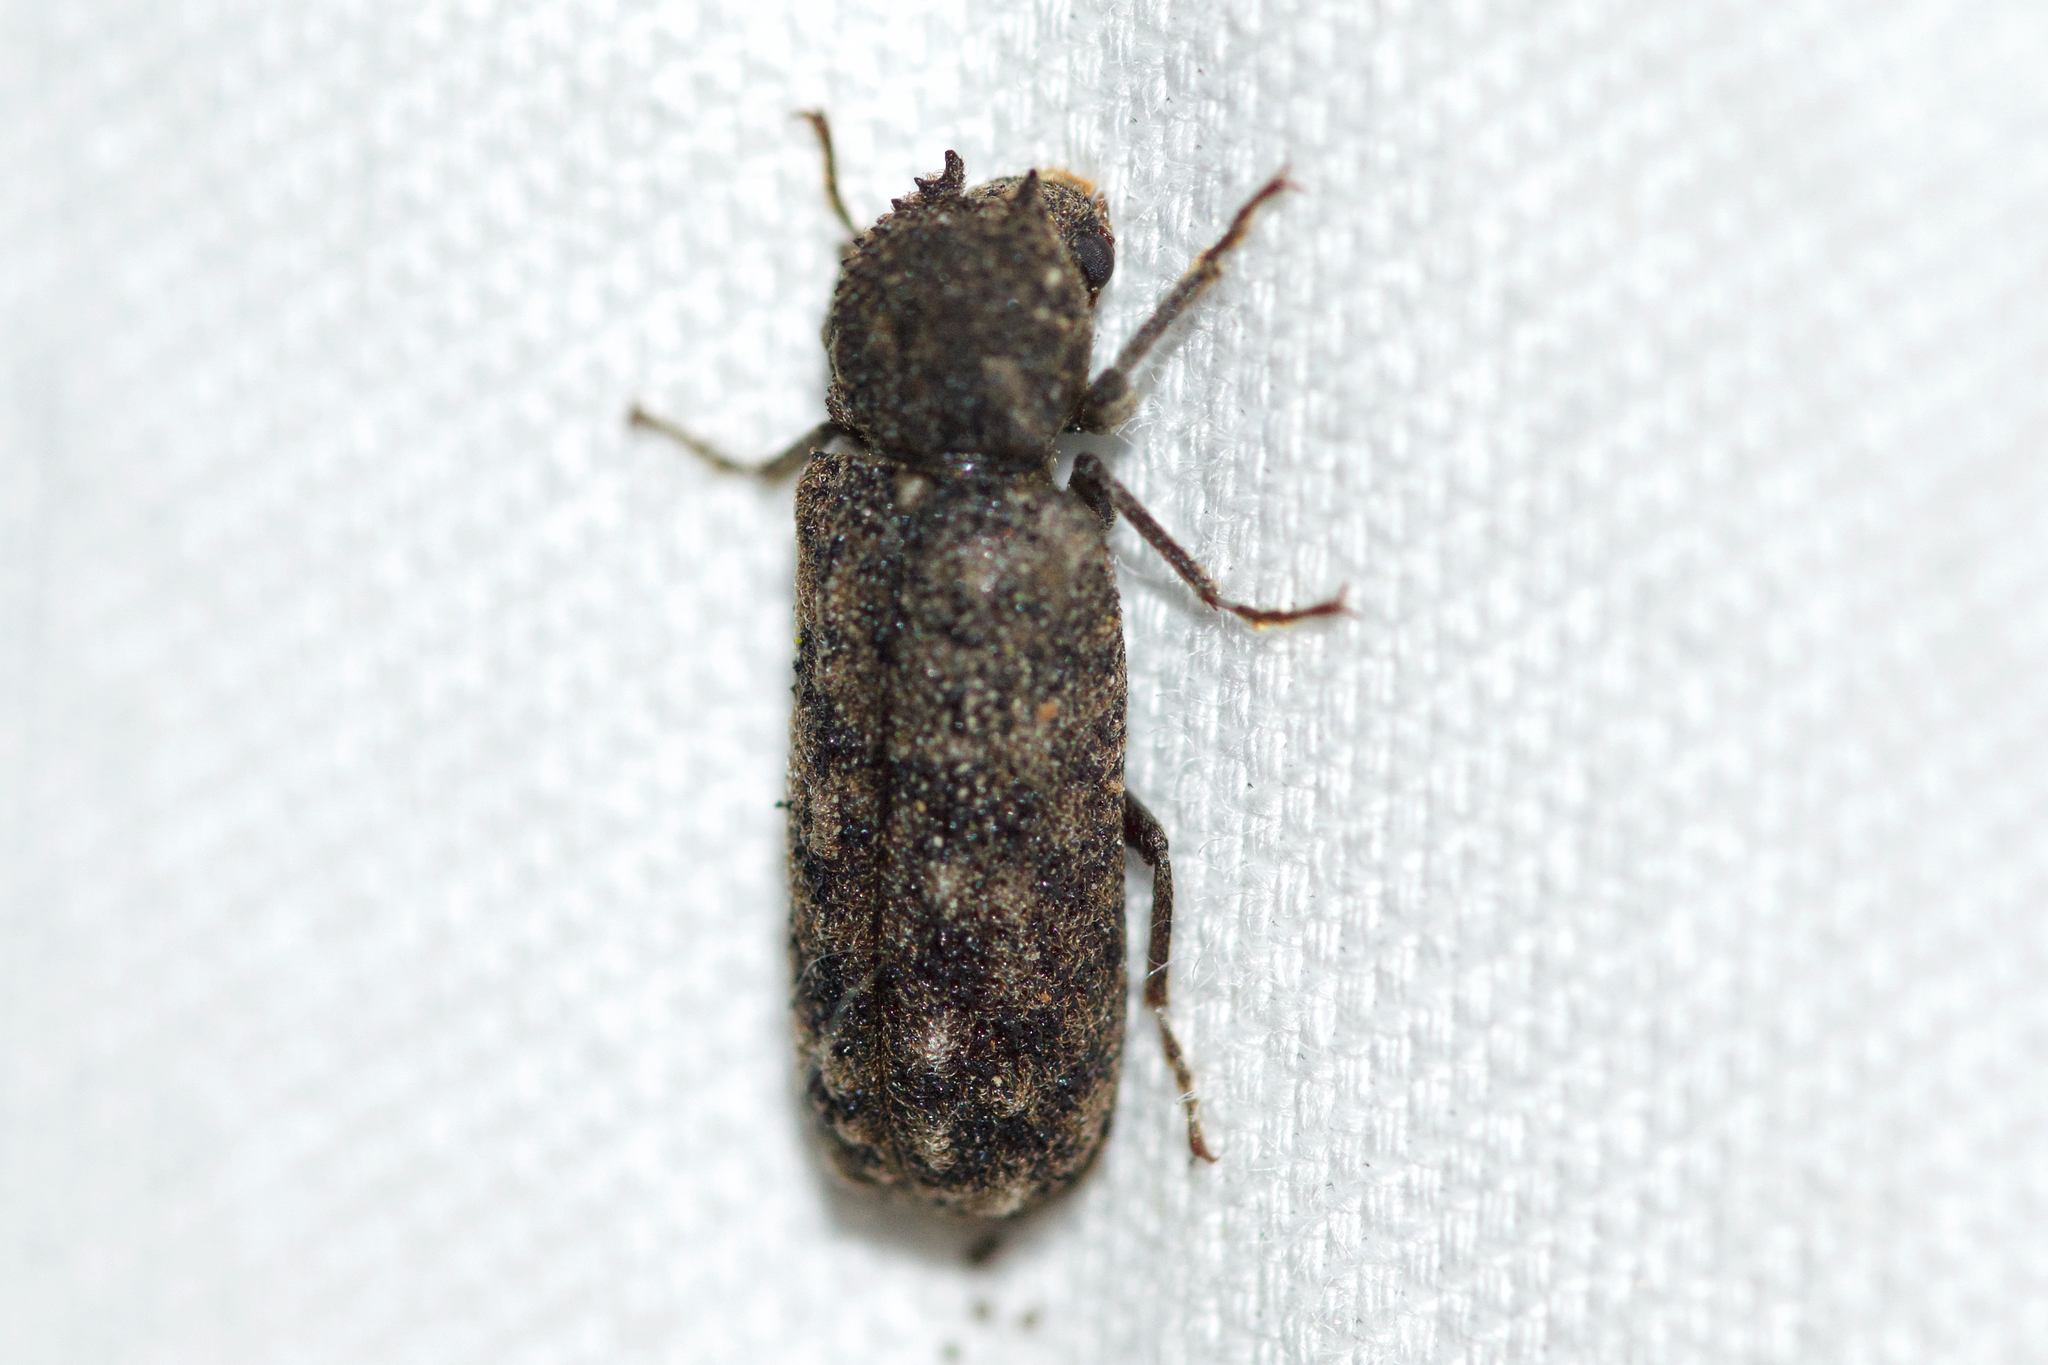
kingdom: Animalia
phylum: Arthropoda
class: Insecta
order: Coleoptera
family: Bostrichidae
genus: Lichenophanes
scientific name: Lichenophanes armiger
